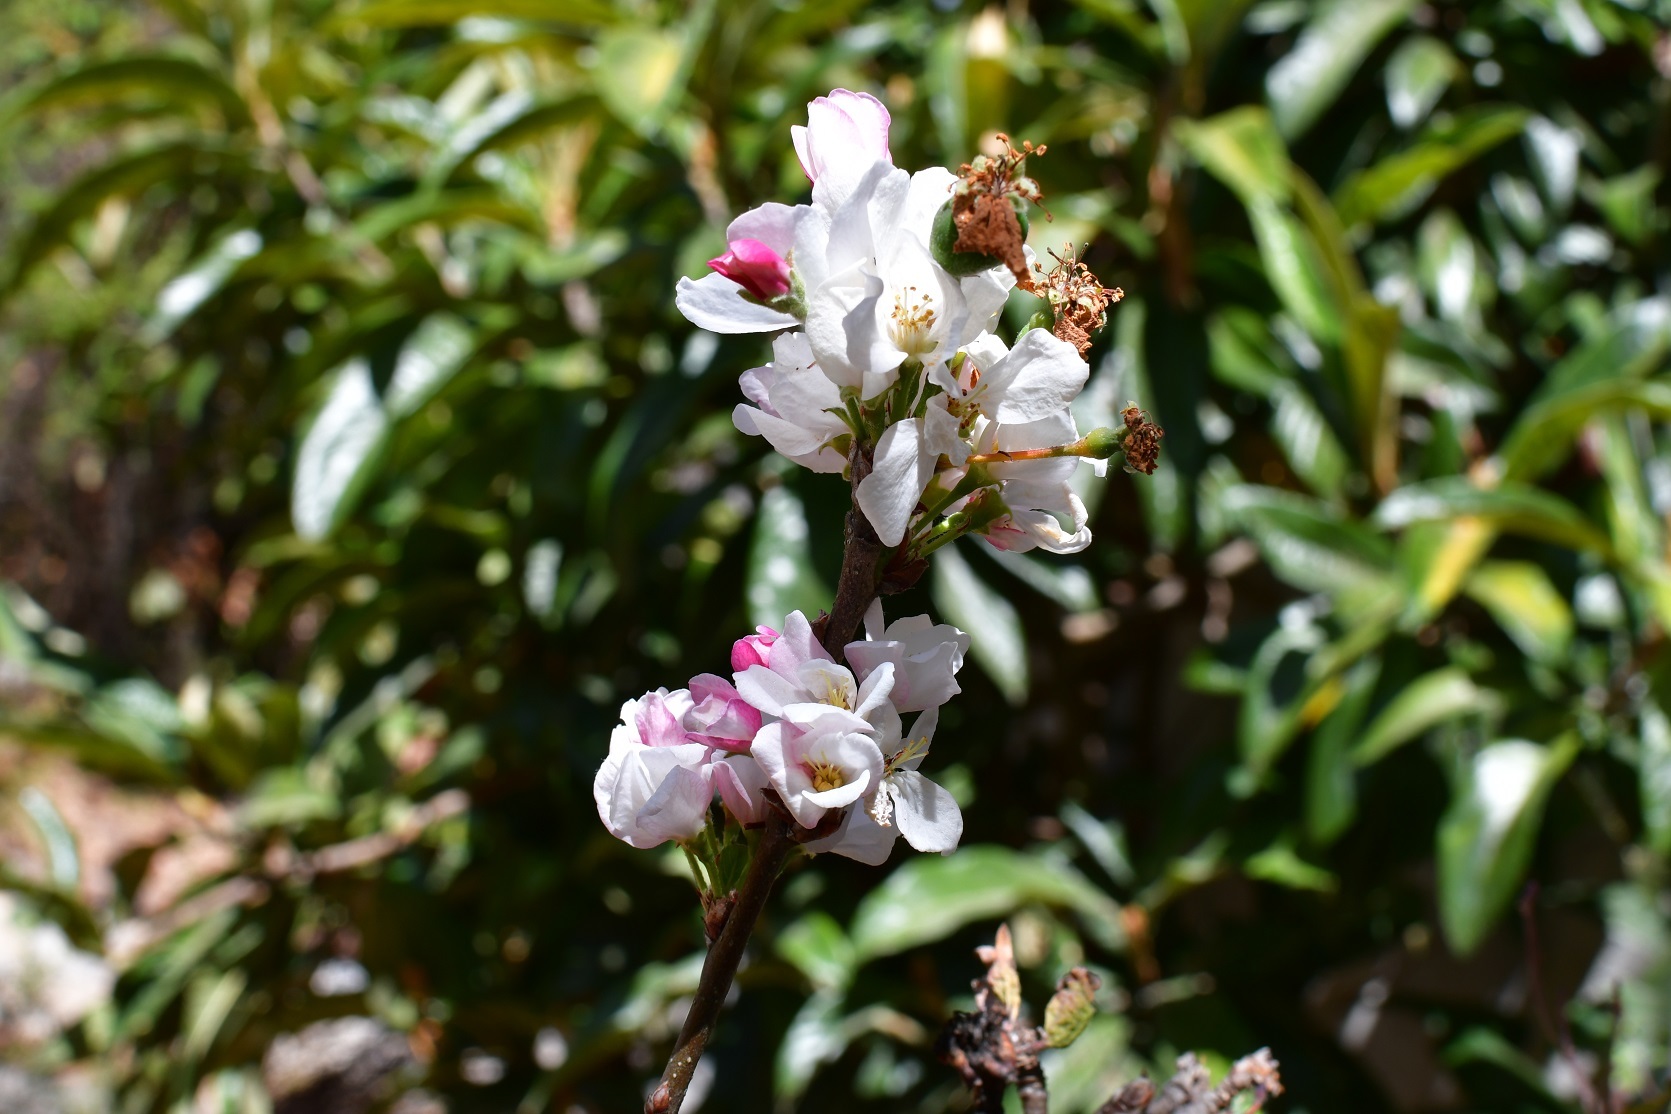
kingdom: Plantae
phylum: Tracheophyta
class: Magnoliopsida
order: Rosales
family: Rosaceae
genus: Malus
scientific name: Malus domestica
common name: Apple
